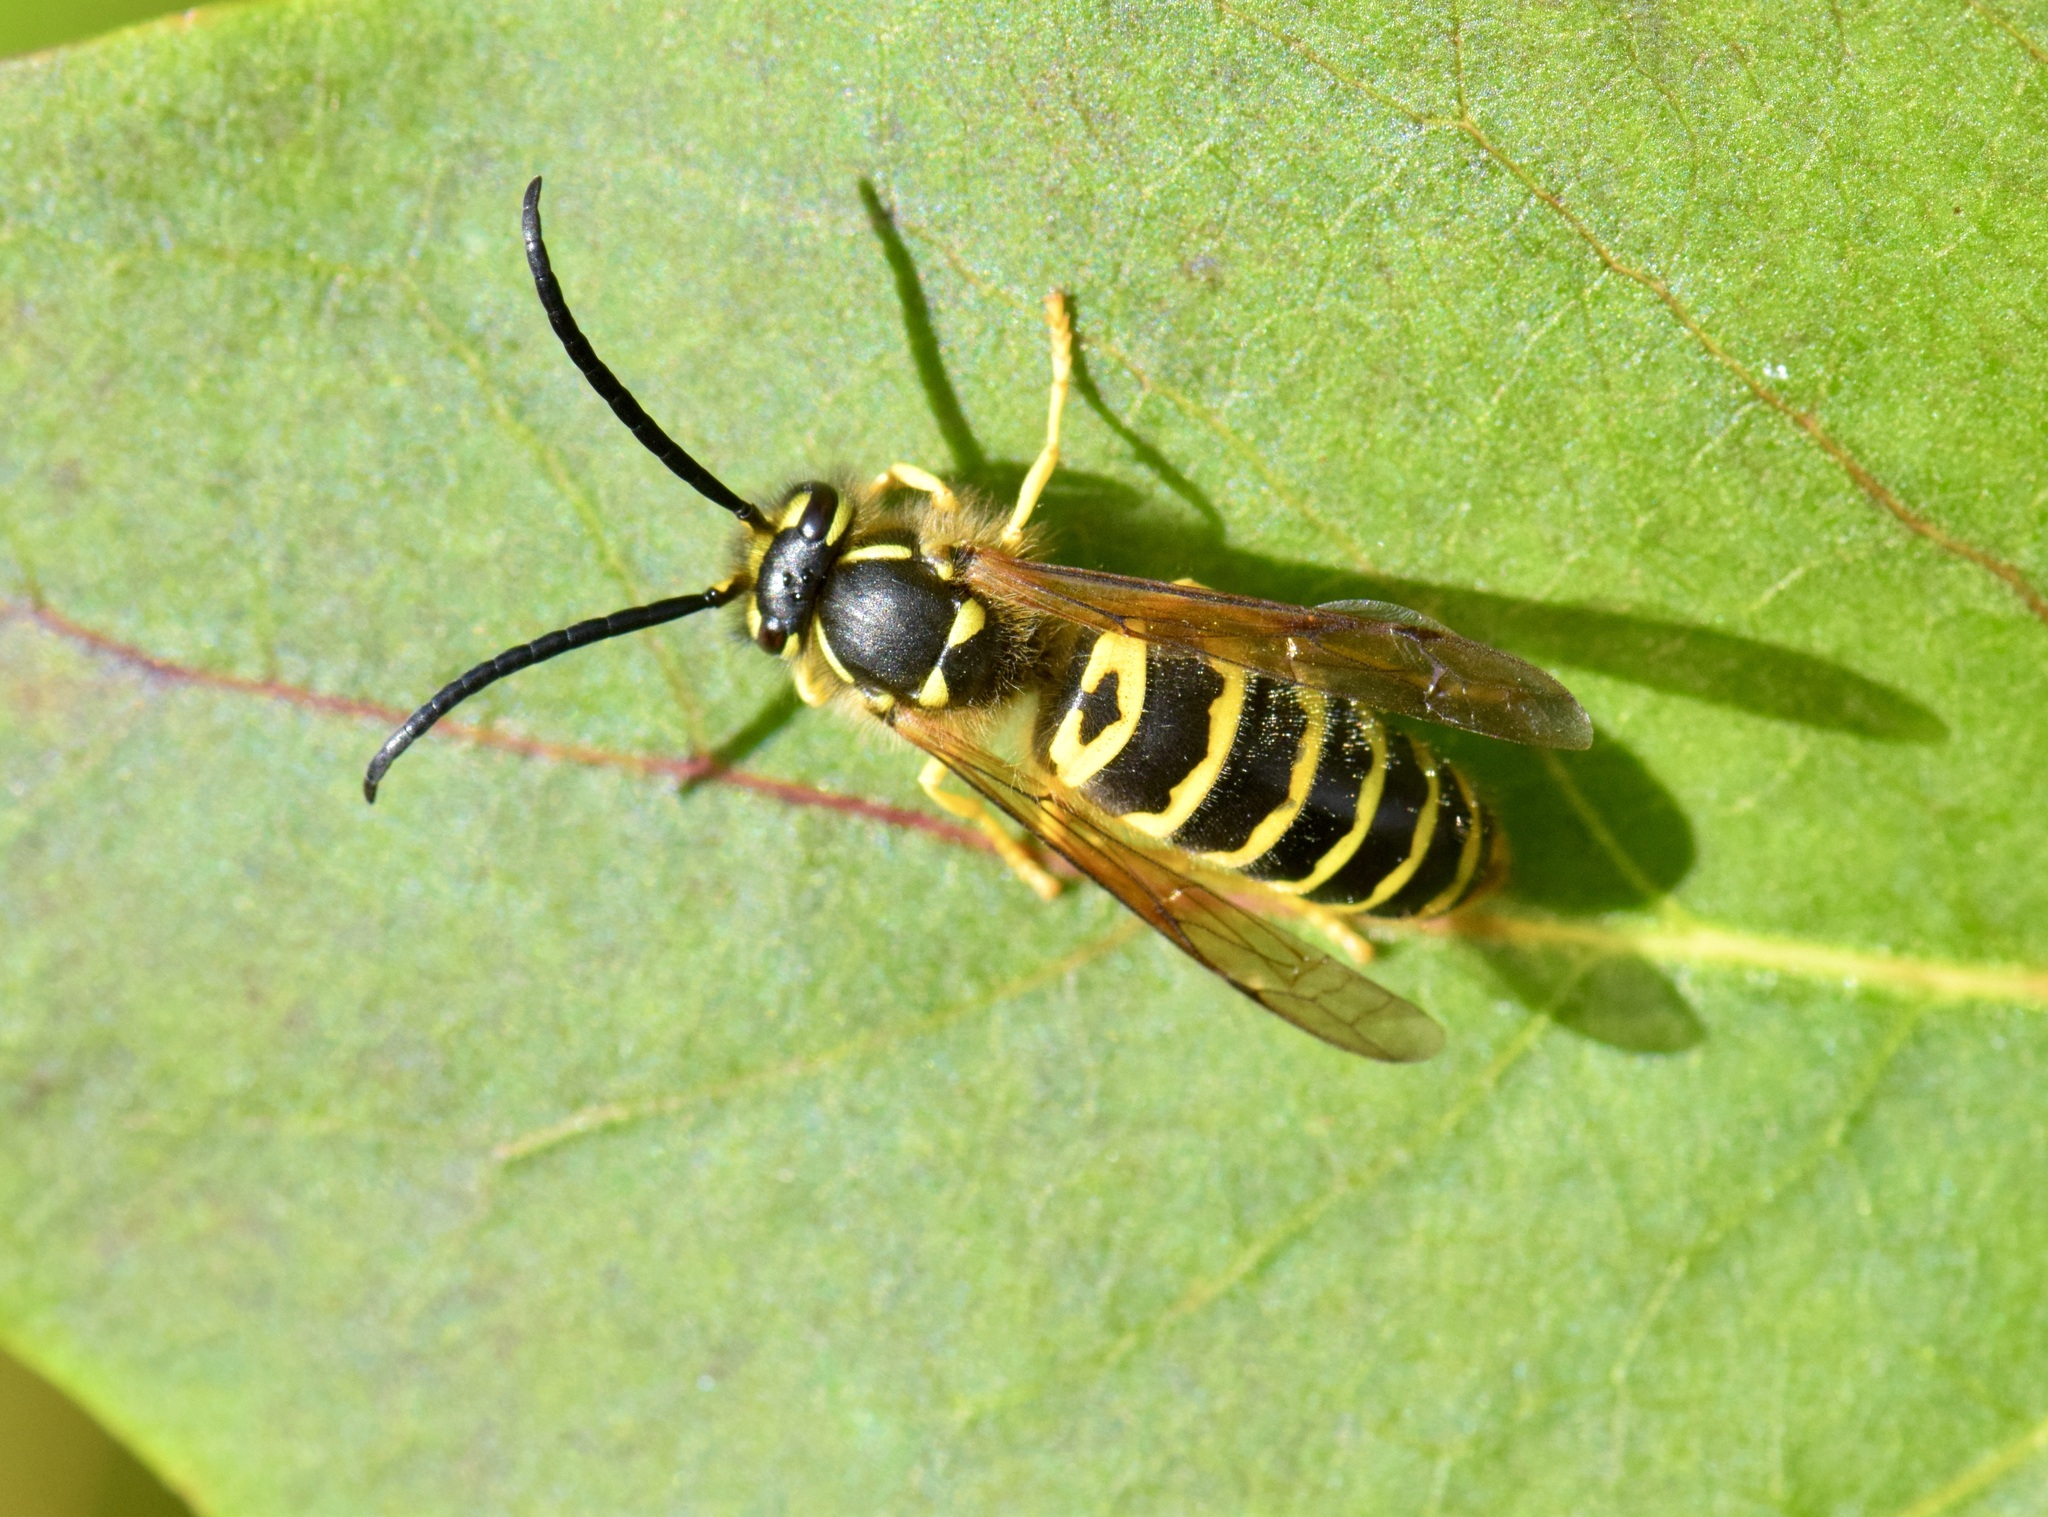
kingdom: Animalia
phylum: Arthropoda
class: Insecta
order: Hymenoptera
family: Vespidae
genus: Vespula
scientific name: Vespula maculifrons
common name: Eastern yellowjacket
